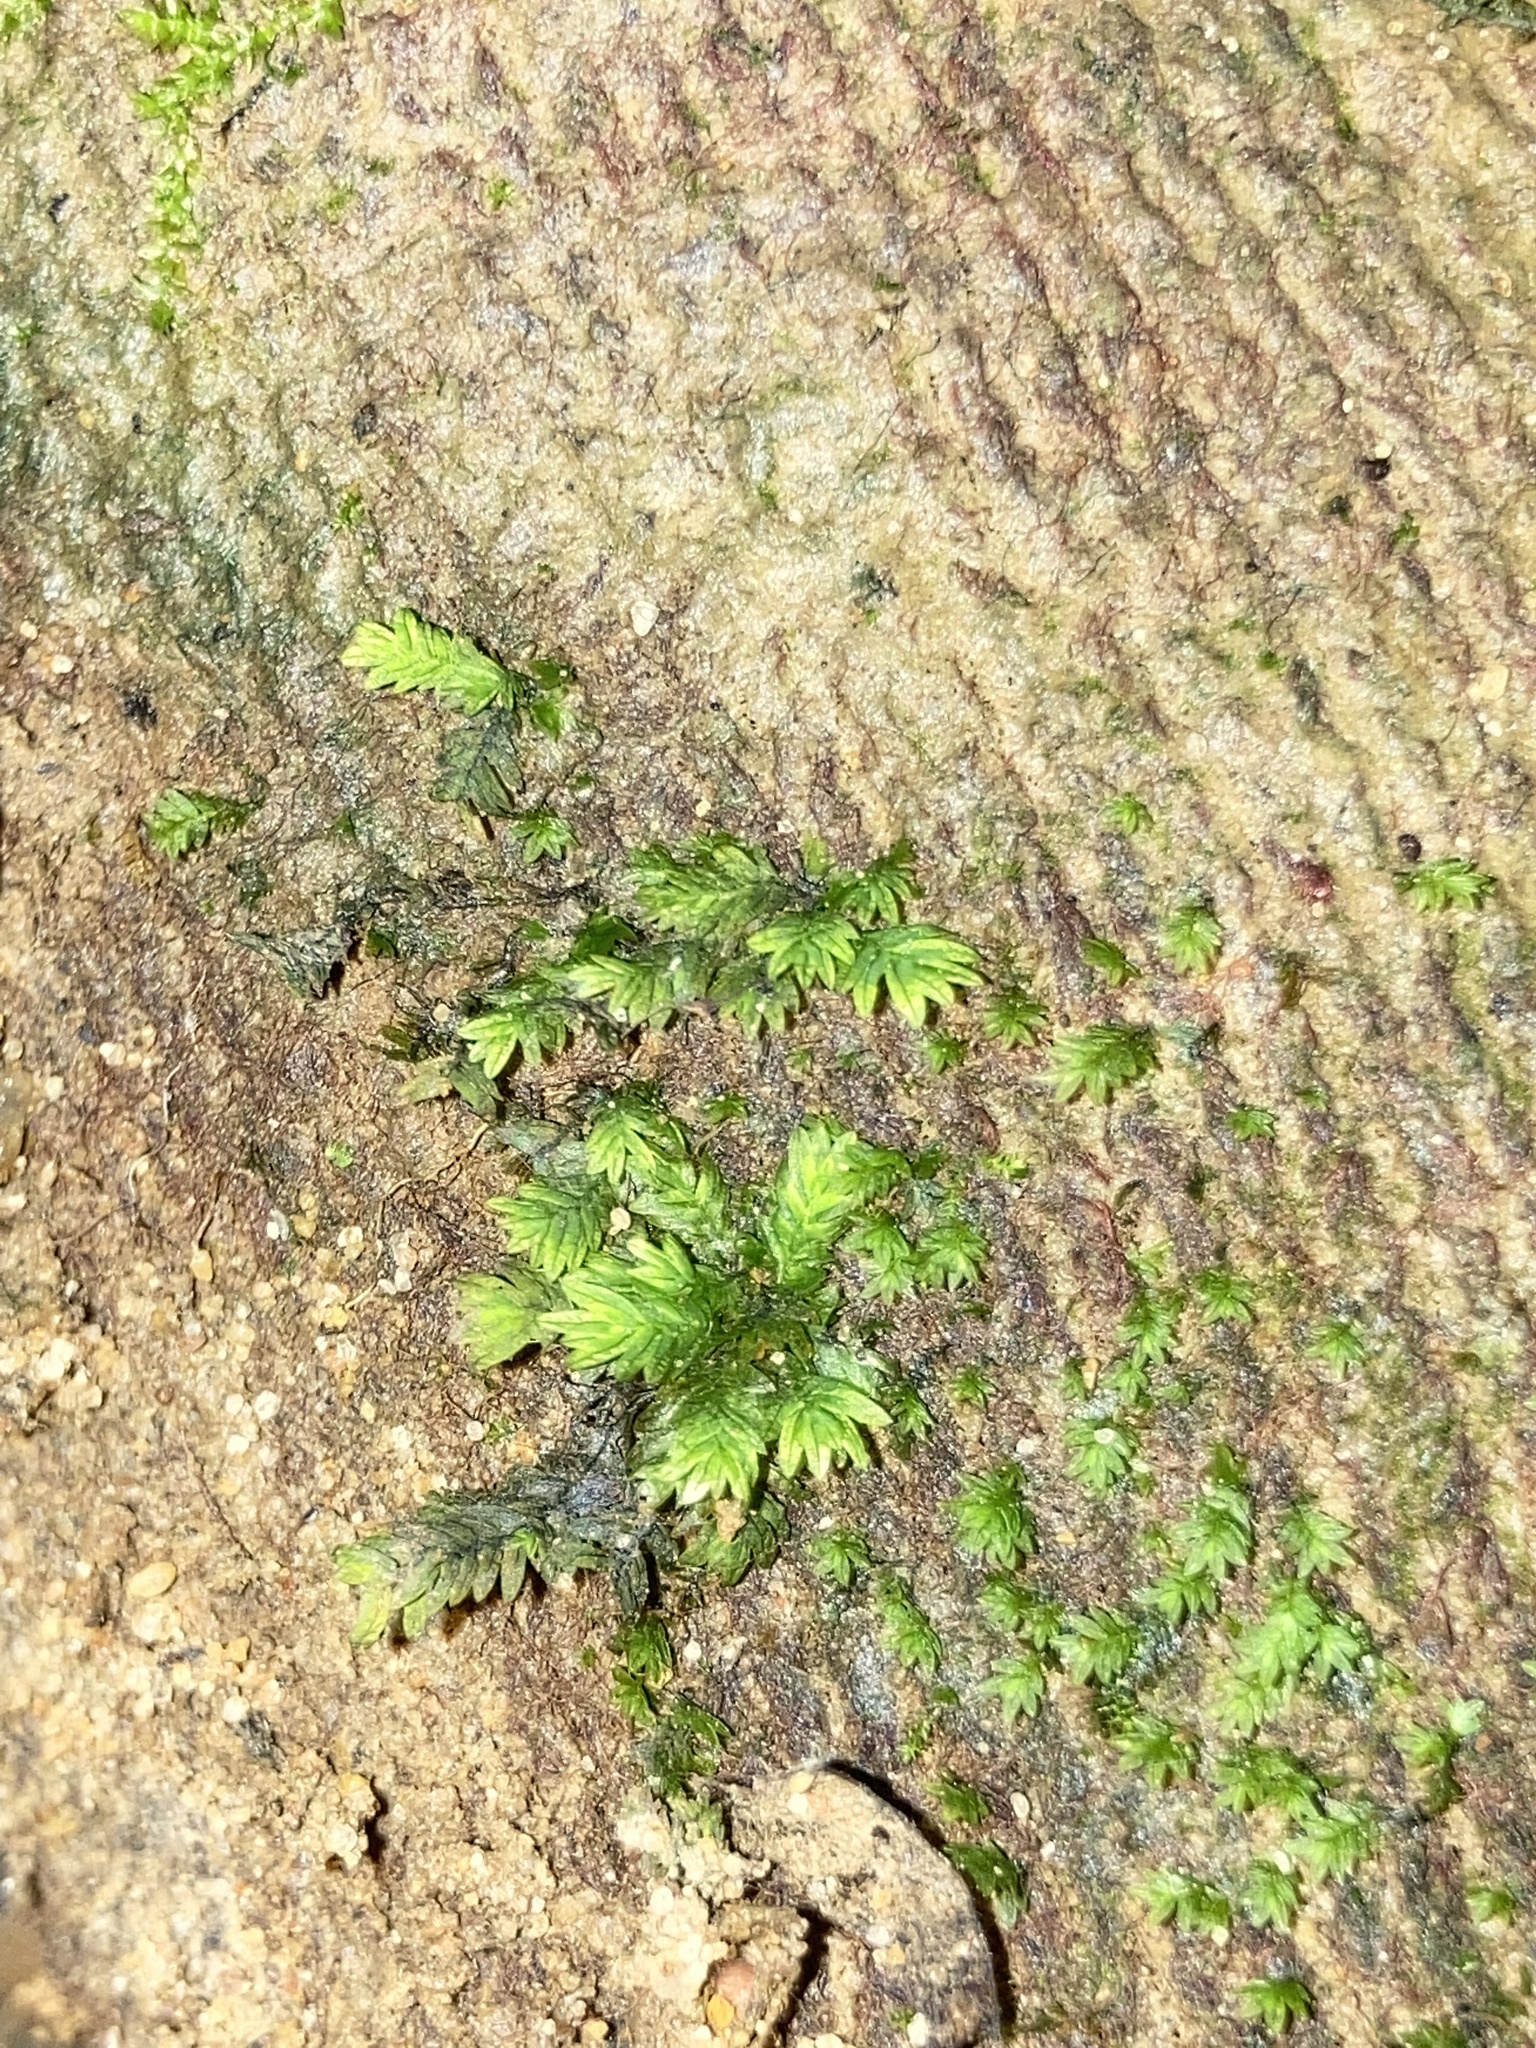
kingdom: Plantae
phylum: Bryophyta
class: Bryopsida
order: Dicranales
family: Fissidentaceae
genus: Fissidens
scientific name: Fissidens dubius
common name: Rock pocket moss
